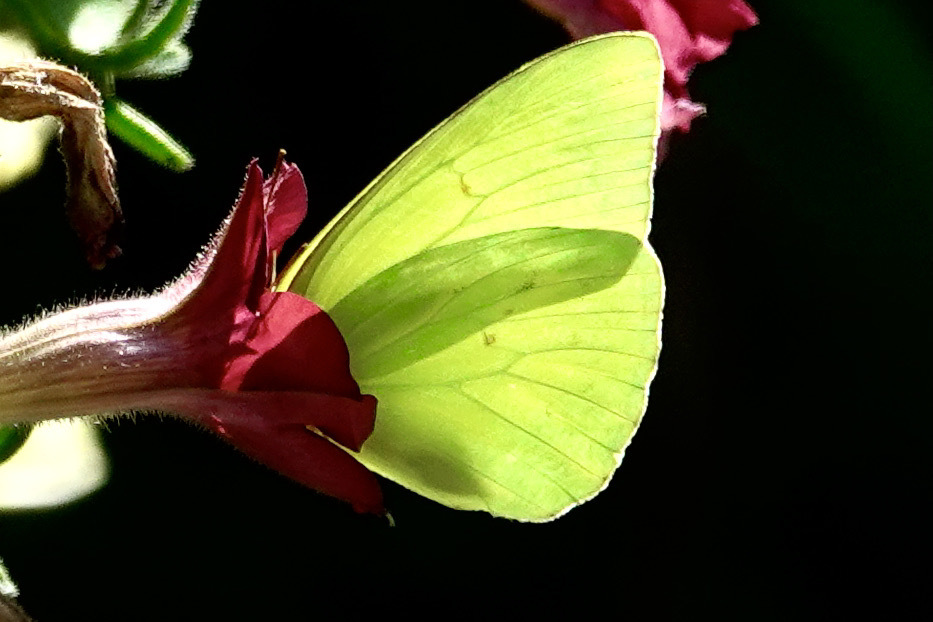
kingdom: Animalia
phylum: Arthropoda
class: Insecta
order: Lepidoptera
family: Pieridae
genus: Phoebis
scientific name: Phoebis sennae
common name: Cloudless sulphur
